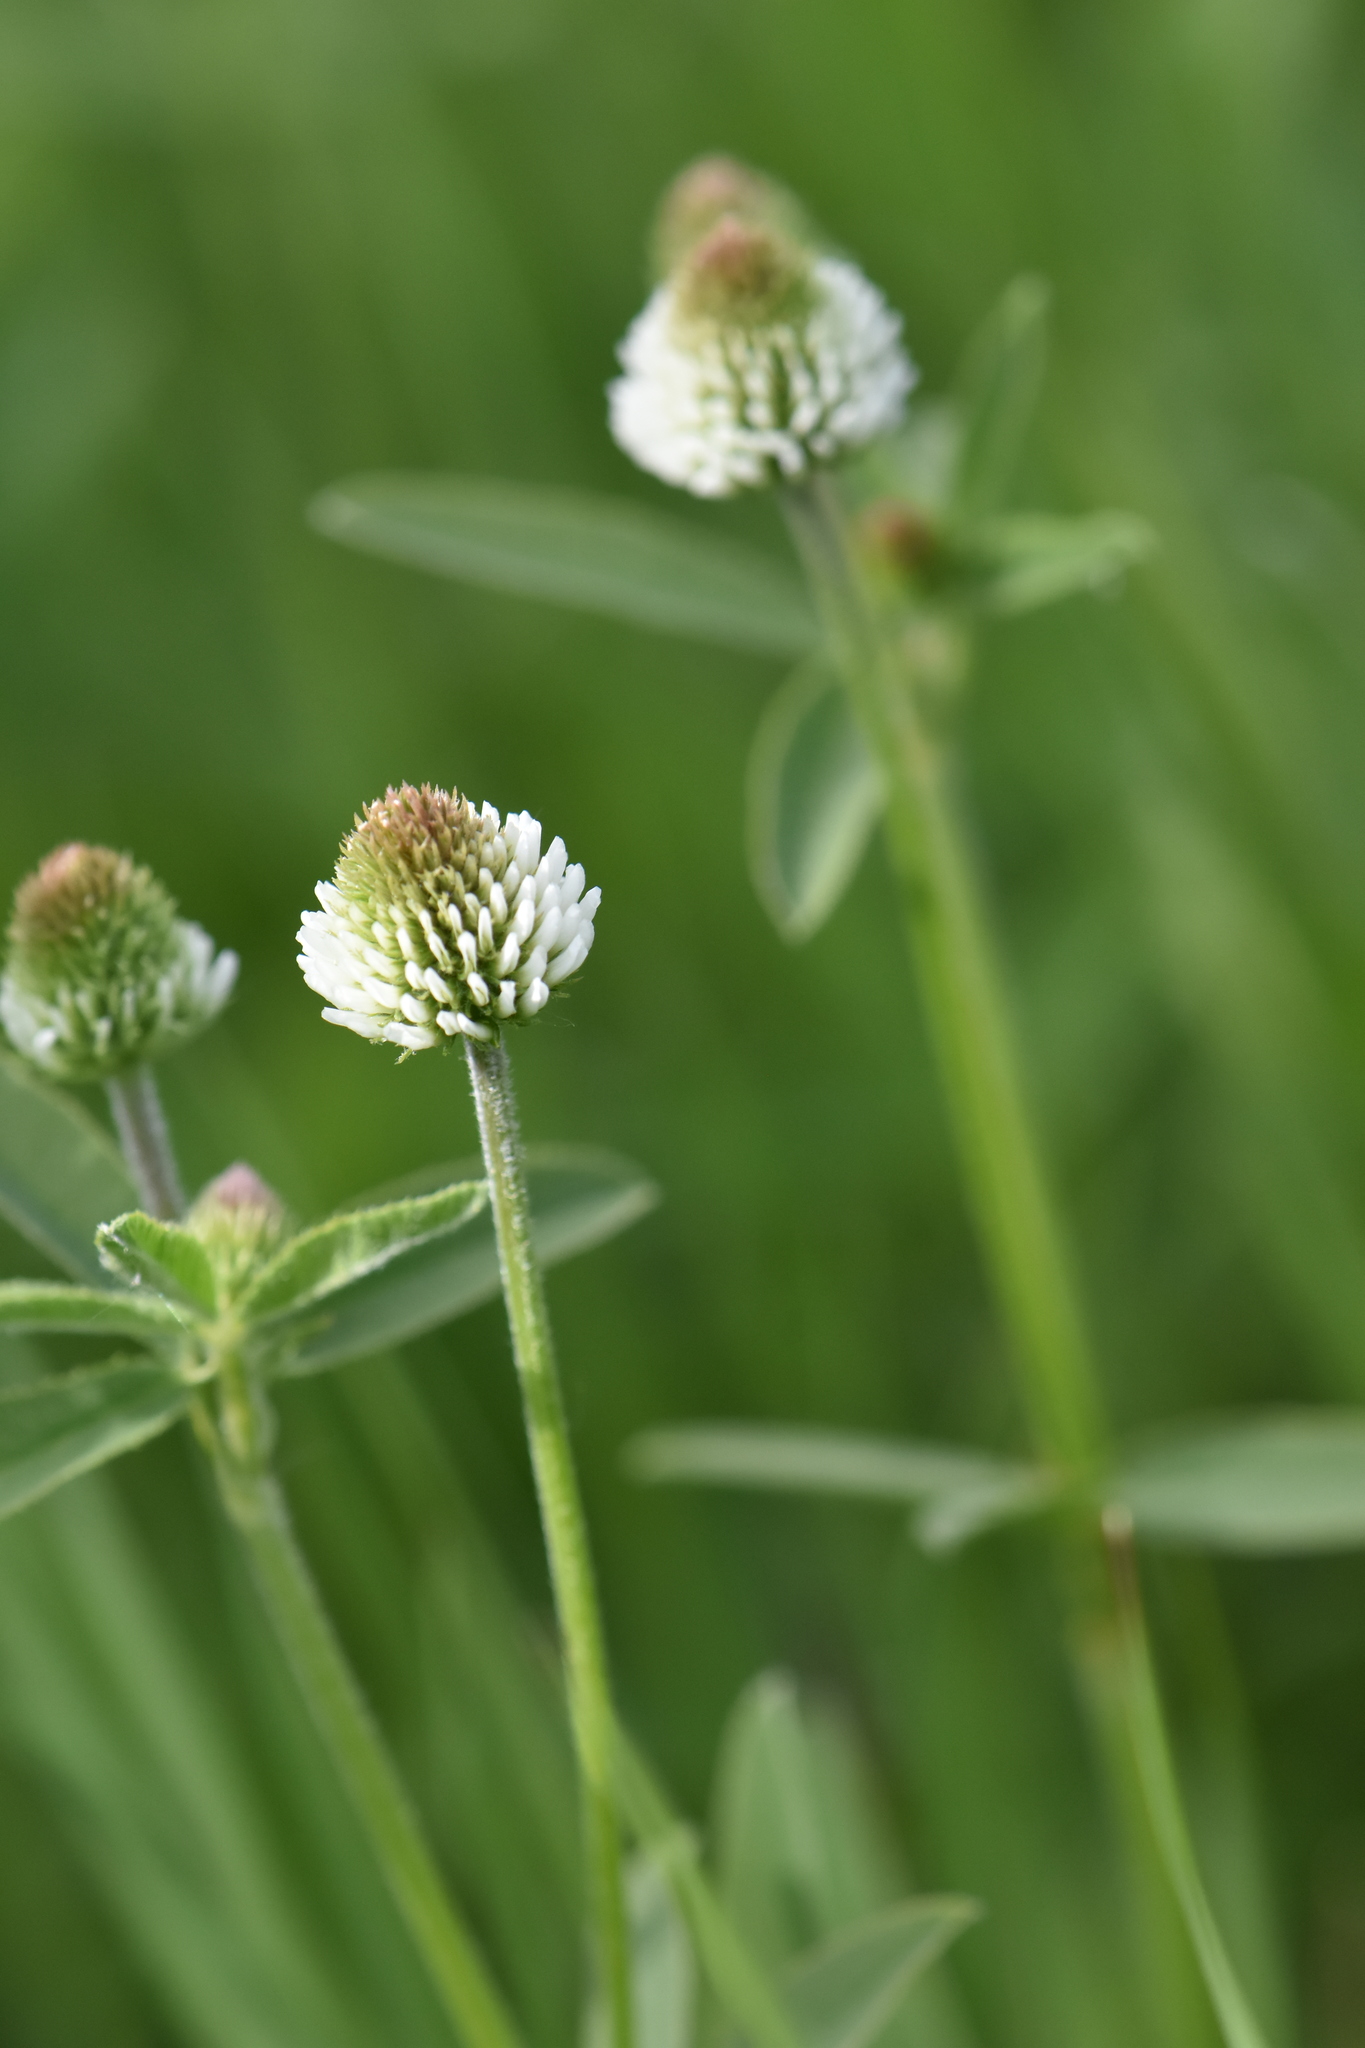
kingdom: Plantae
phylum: Tracheophyta
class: Magnoliopsida
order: Fabales
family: Fabaceae
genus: Trifolium
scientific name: Trifolium montanum
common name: Mountain clover
